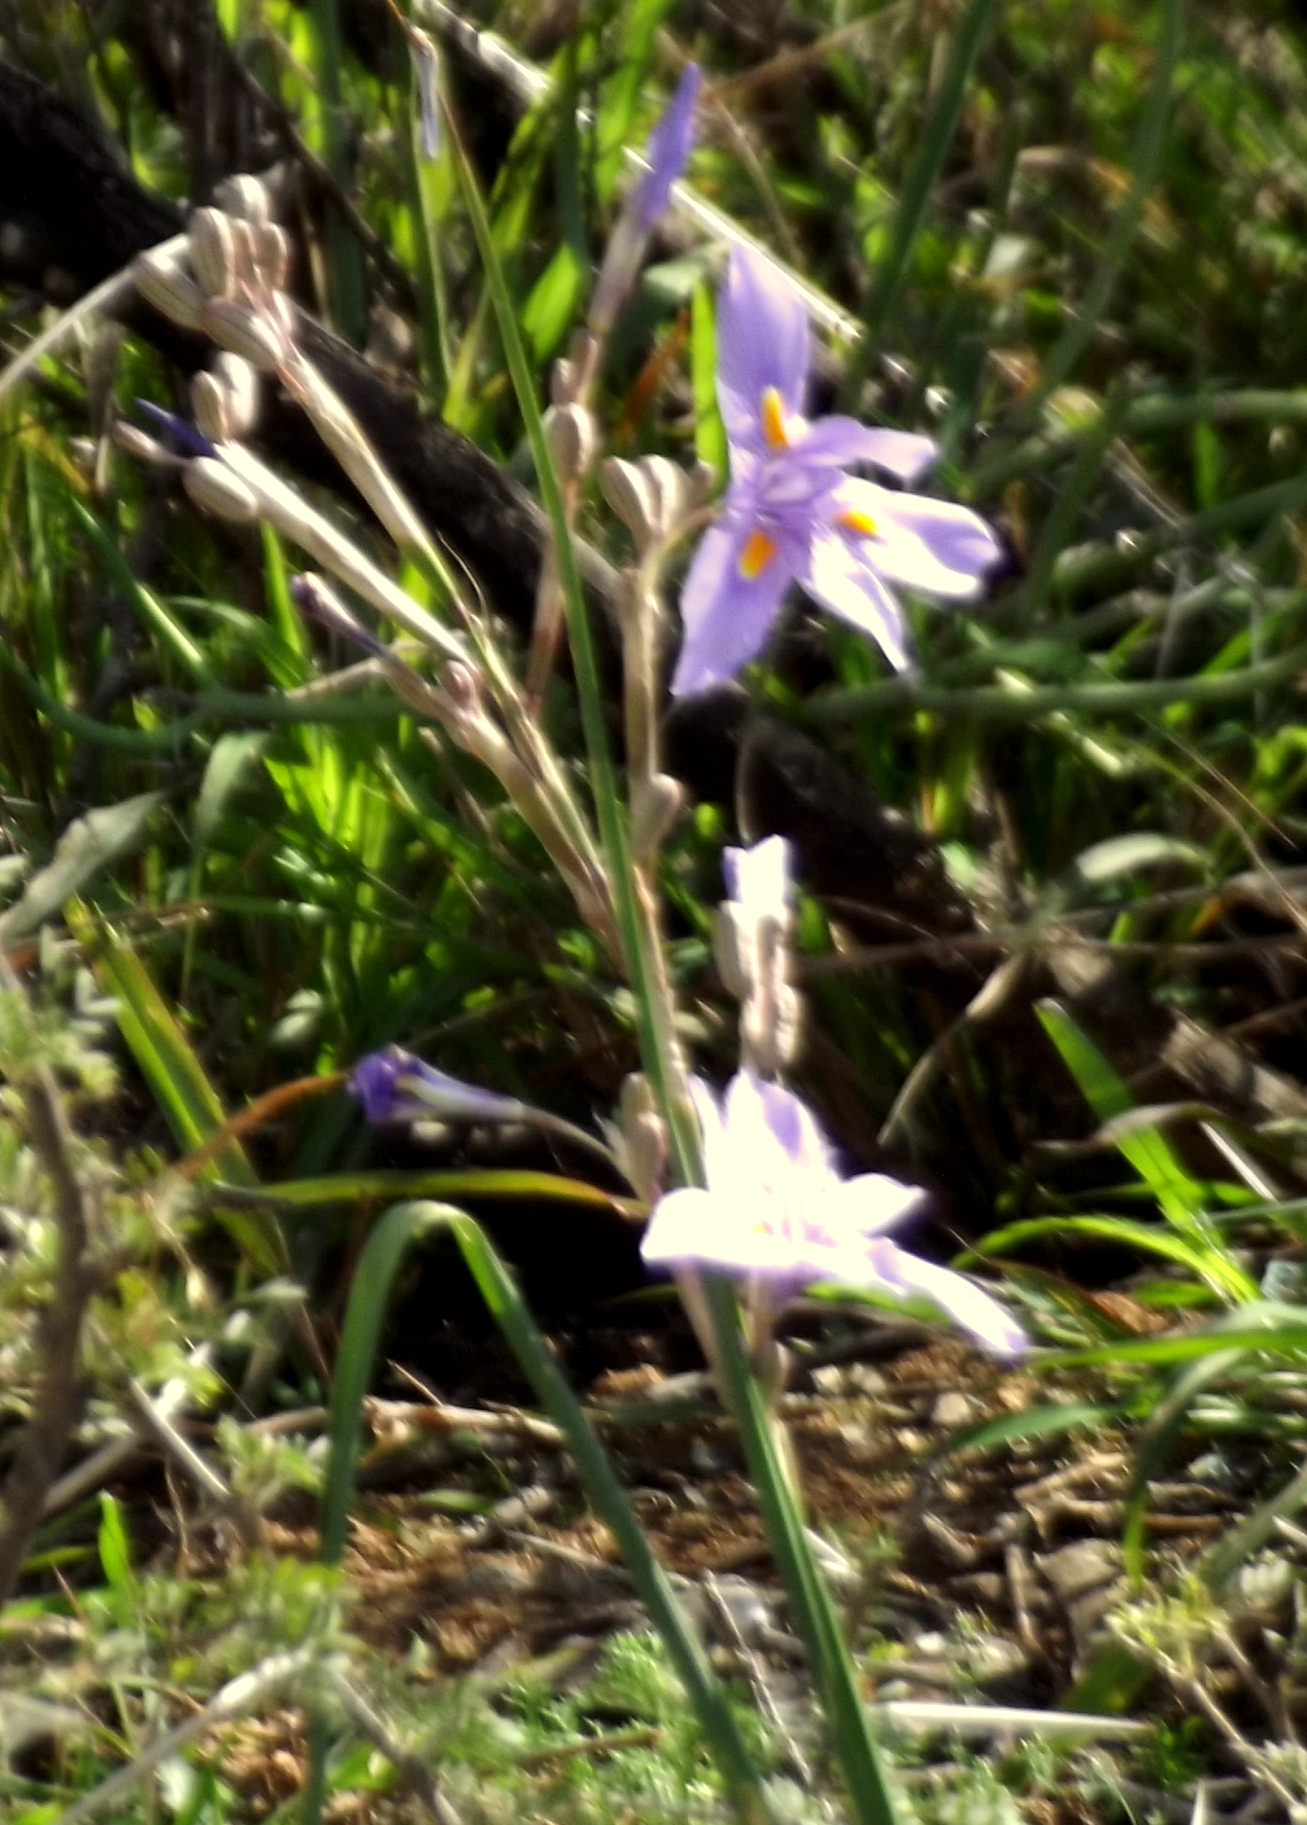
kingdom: Plantae
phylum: Tracheophyta
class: Liliopsida
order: Asparagales
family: Iridaceae
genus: Moraea
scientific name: Moraea polystachya
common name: Blue-tulip
